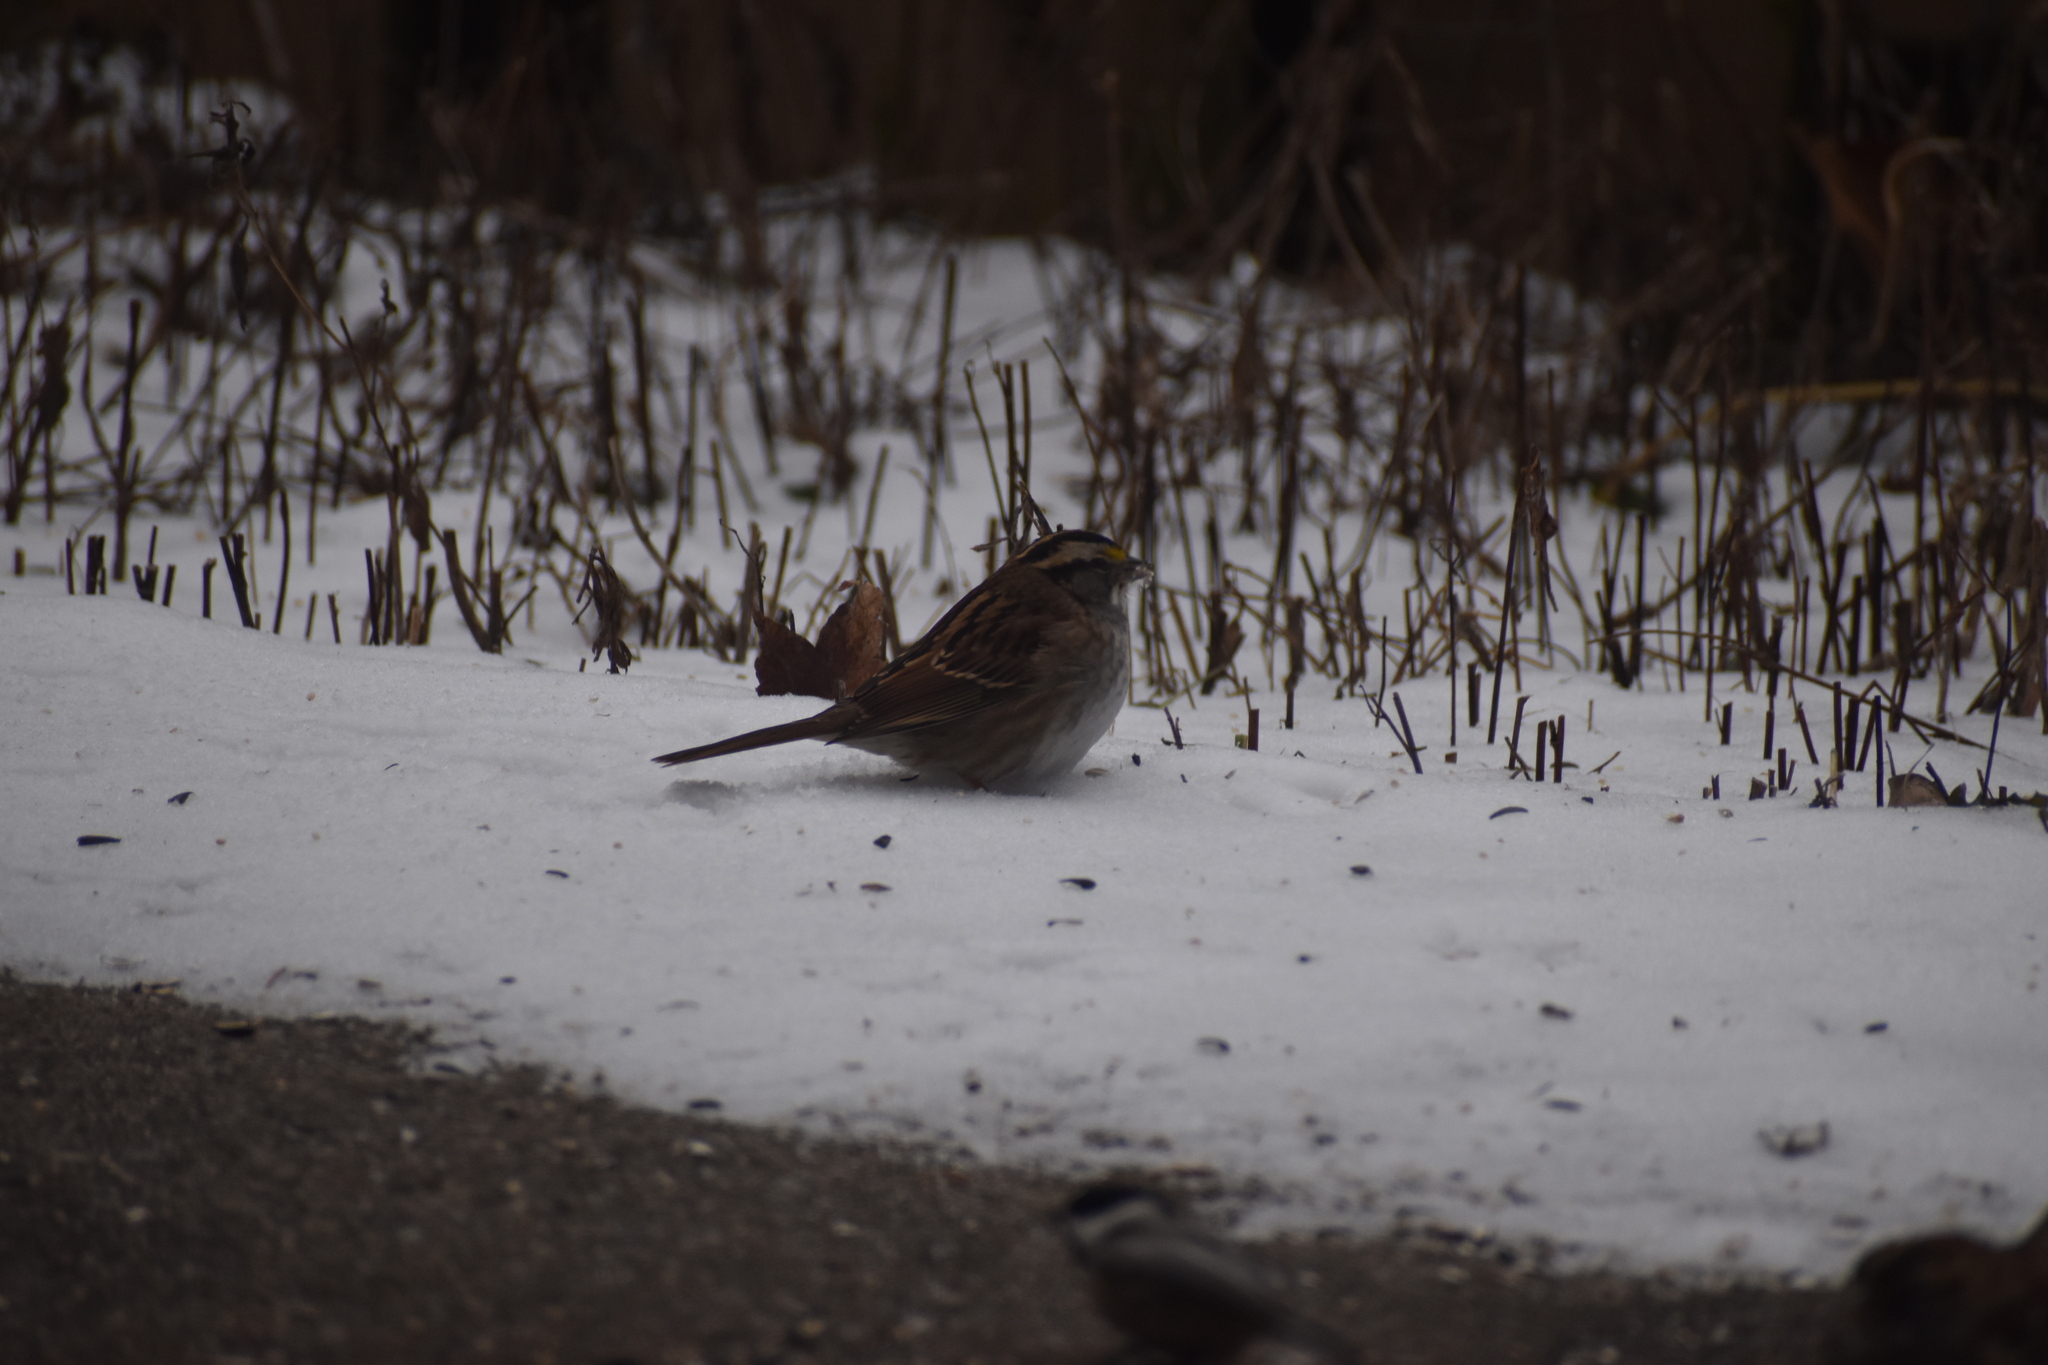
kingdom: Animalia
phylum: Chordata
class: Aves
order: Passeriformes
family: Passerellidae
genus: Zonotrichia
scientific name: Zonotrichia albicollis
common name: White-throated sparrow
